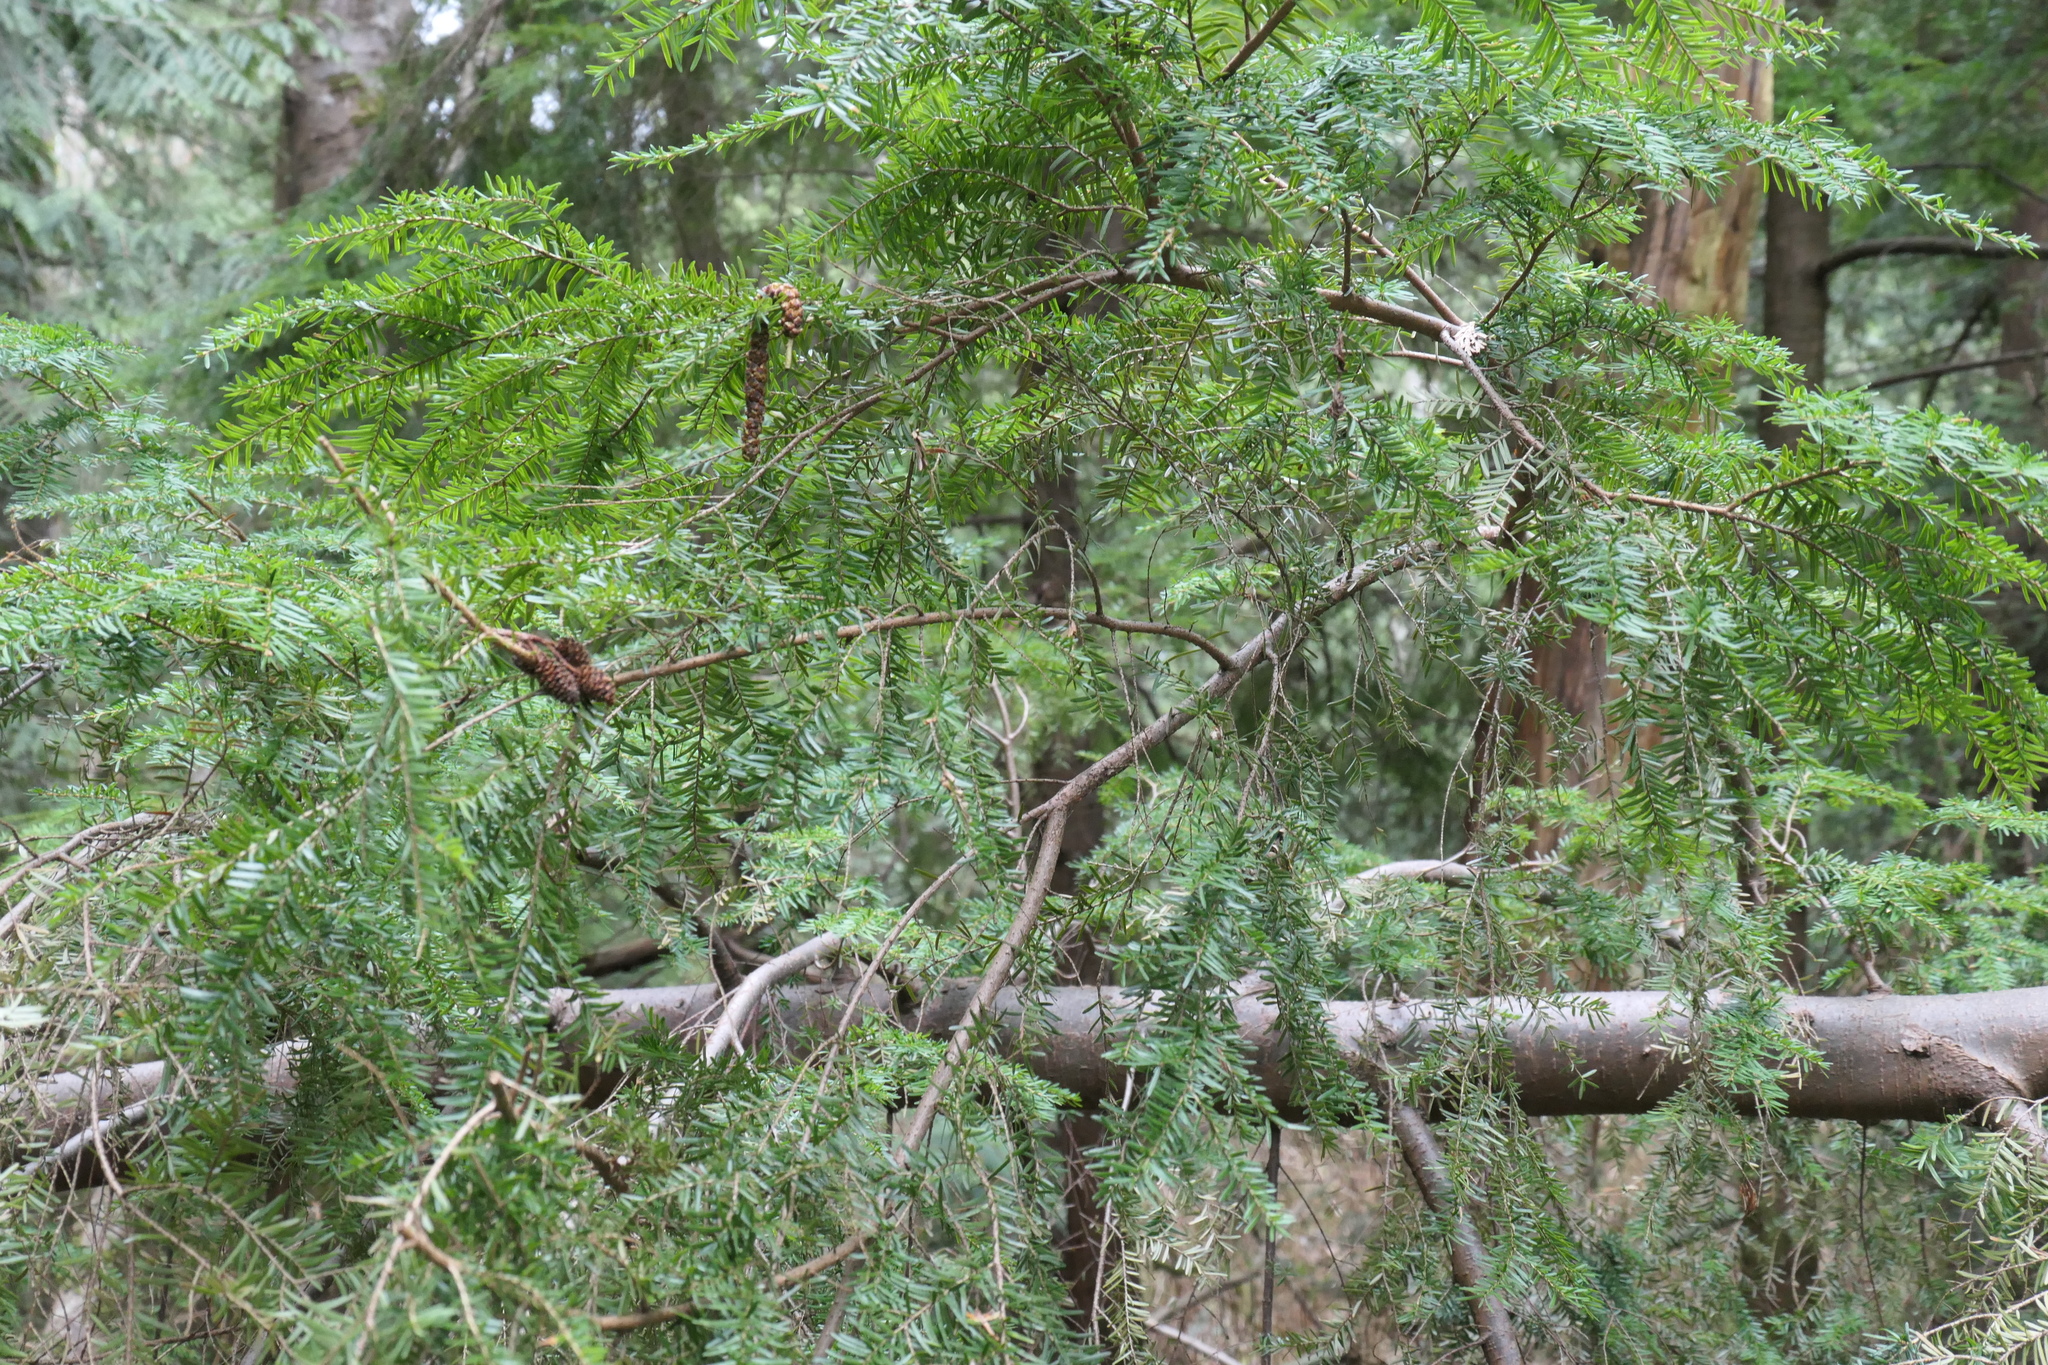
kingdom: Plantae
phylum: Tracheophyta
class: Pinopsida
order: Pinales
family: Pinaceae
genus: Tsuga
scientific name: Tsuga heterophylla
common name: Western hemlock
